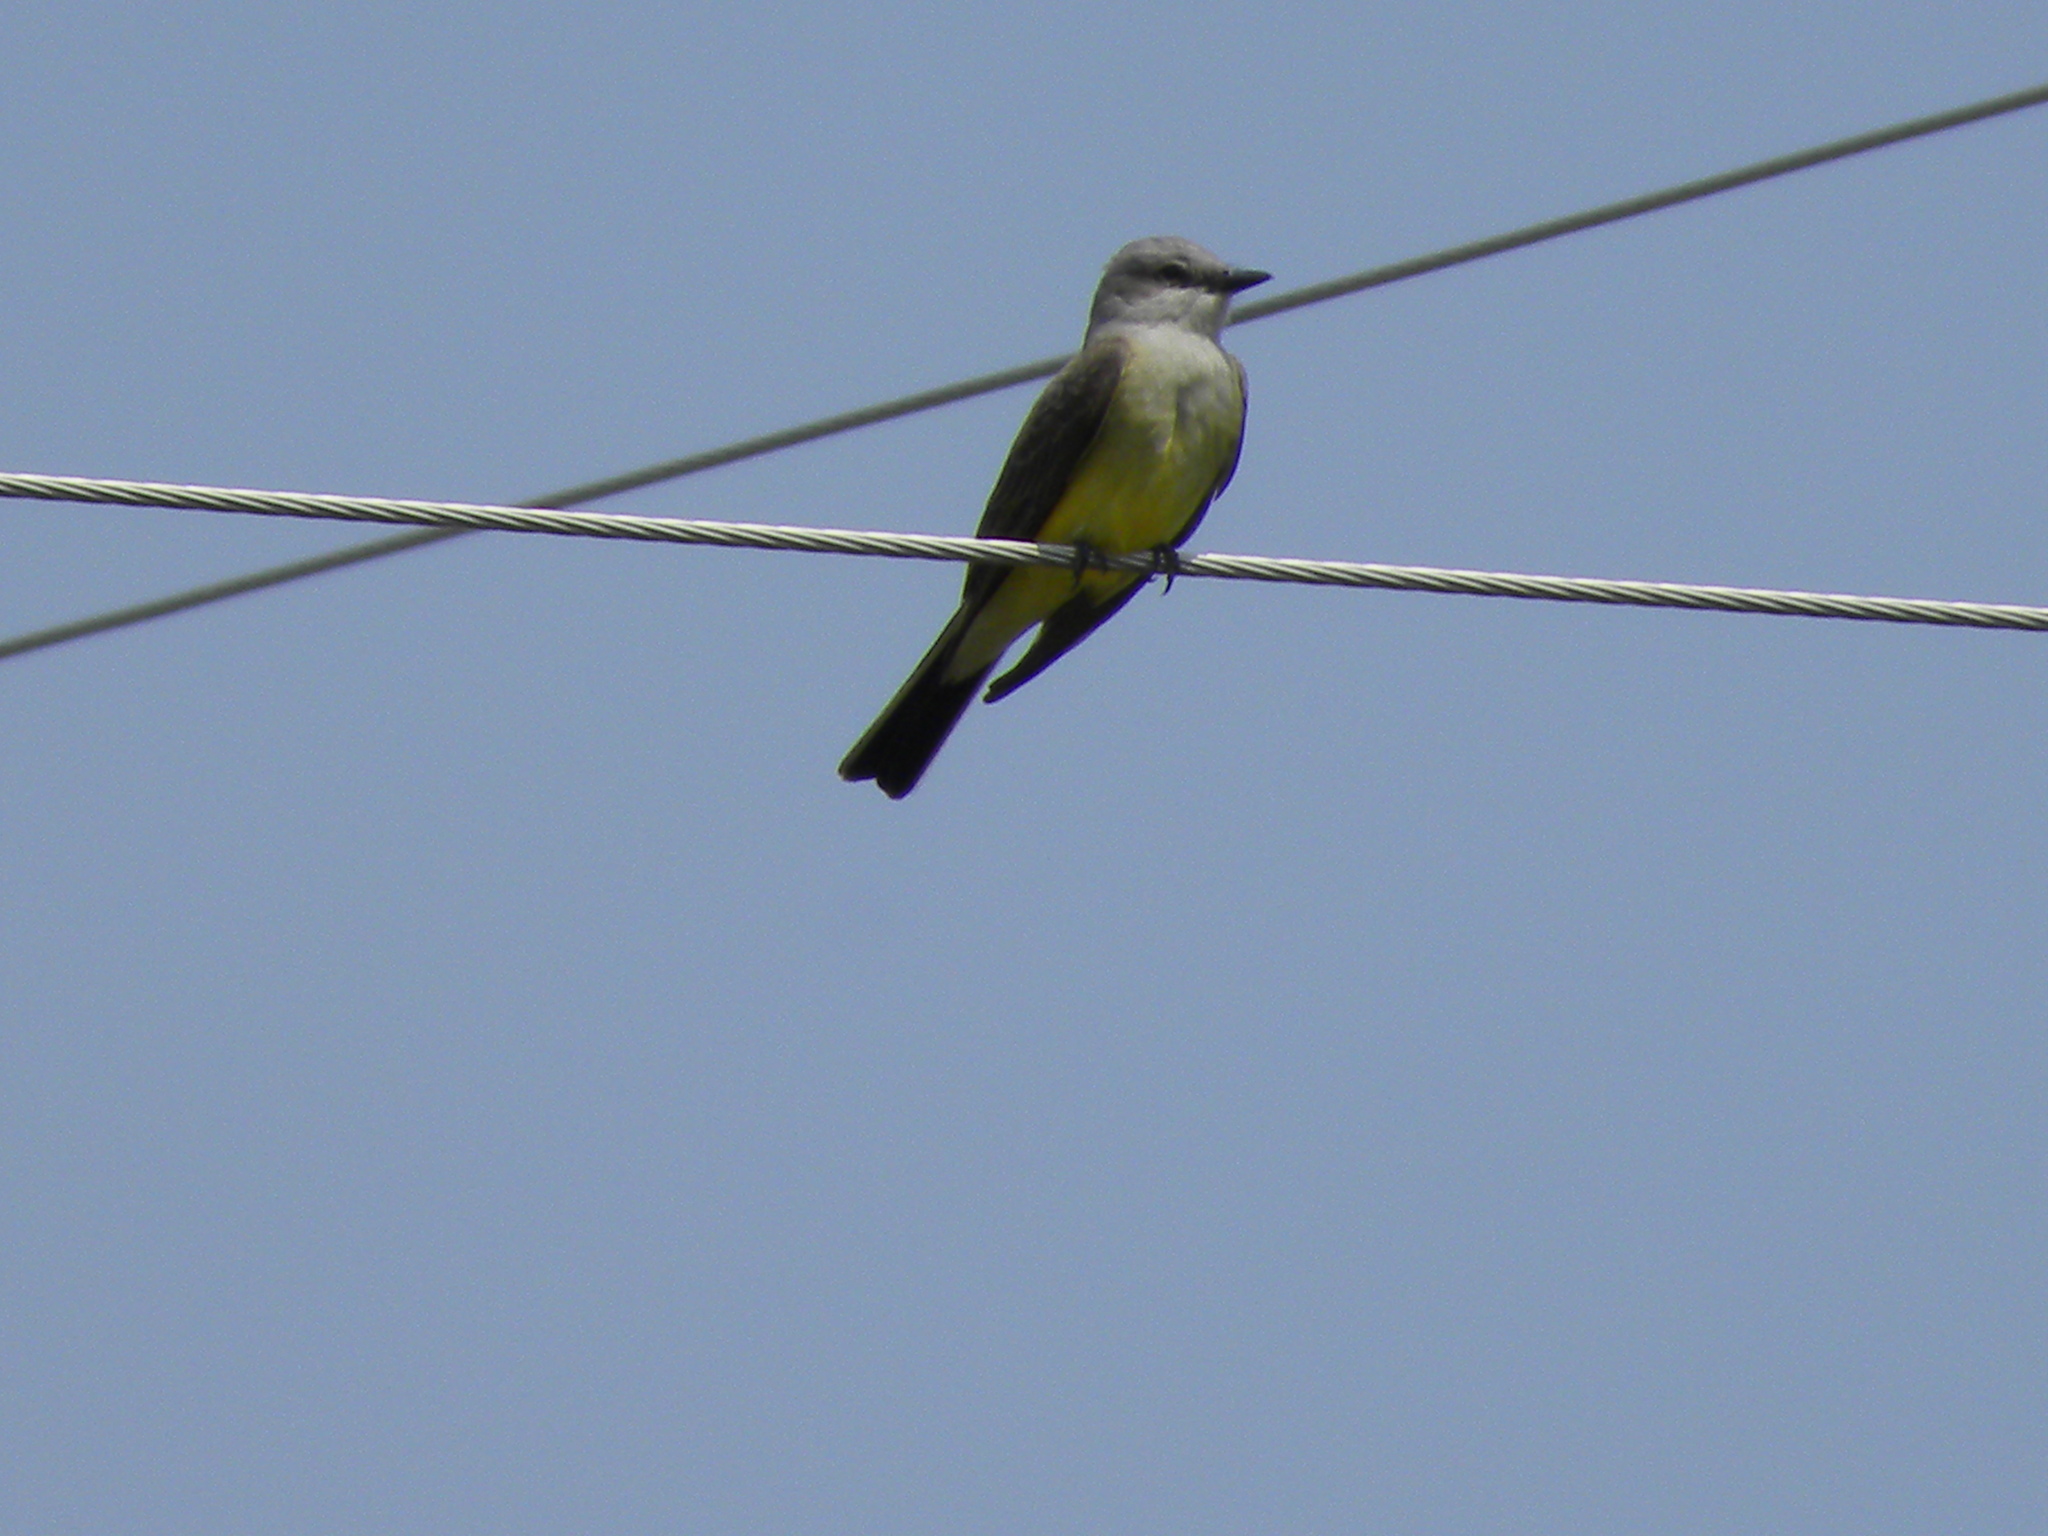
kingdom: Animalia
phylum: Chordata
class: Aves
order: Passeriformes
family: Tyrannidae
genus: Tyrannus
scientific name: Tyrannus verticalis
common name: Western kingbird
